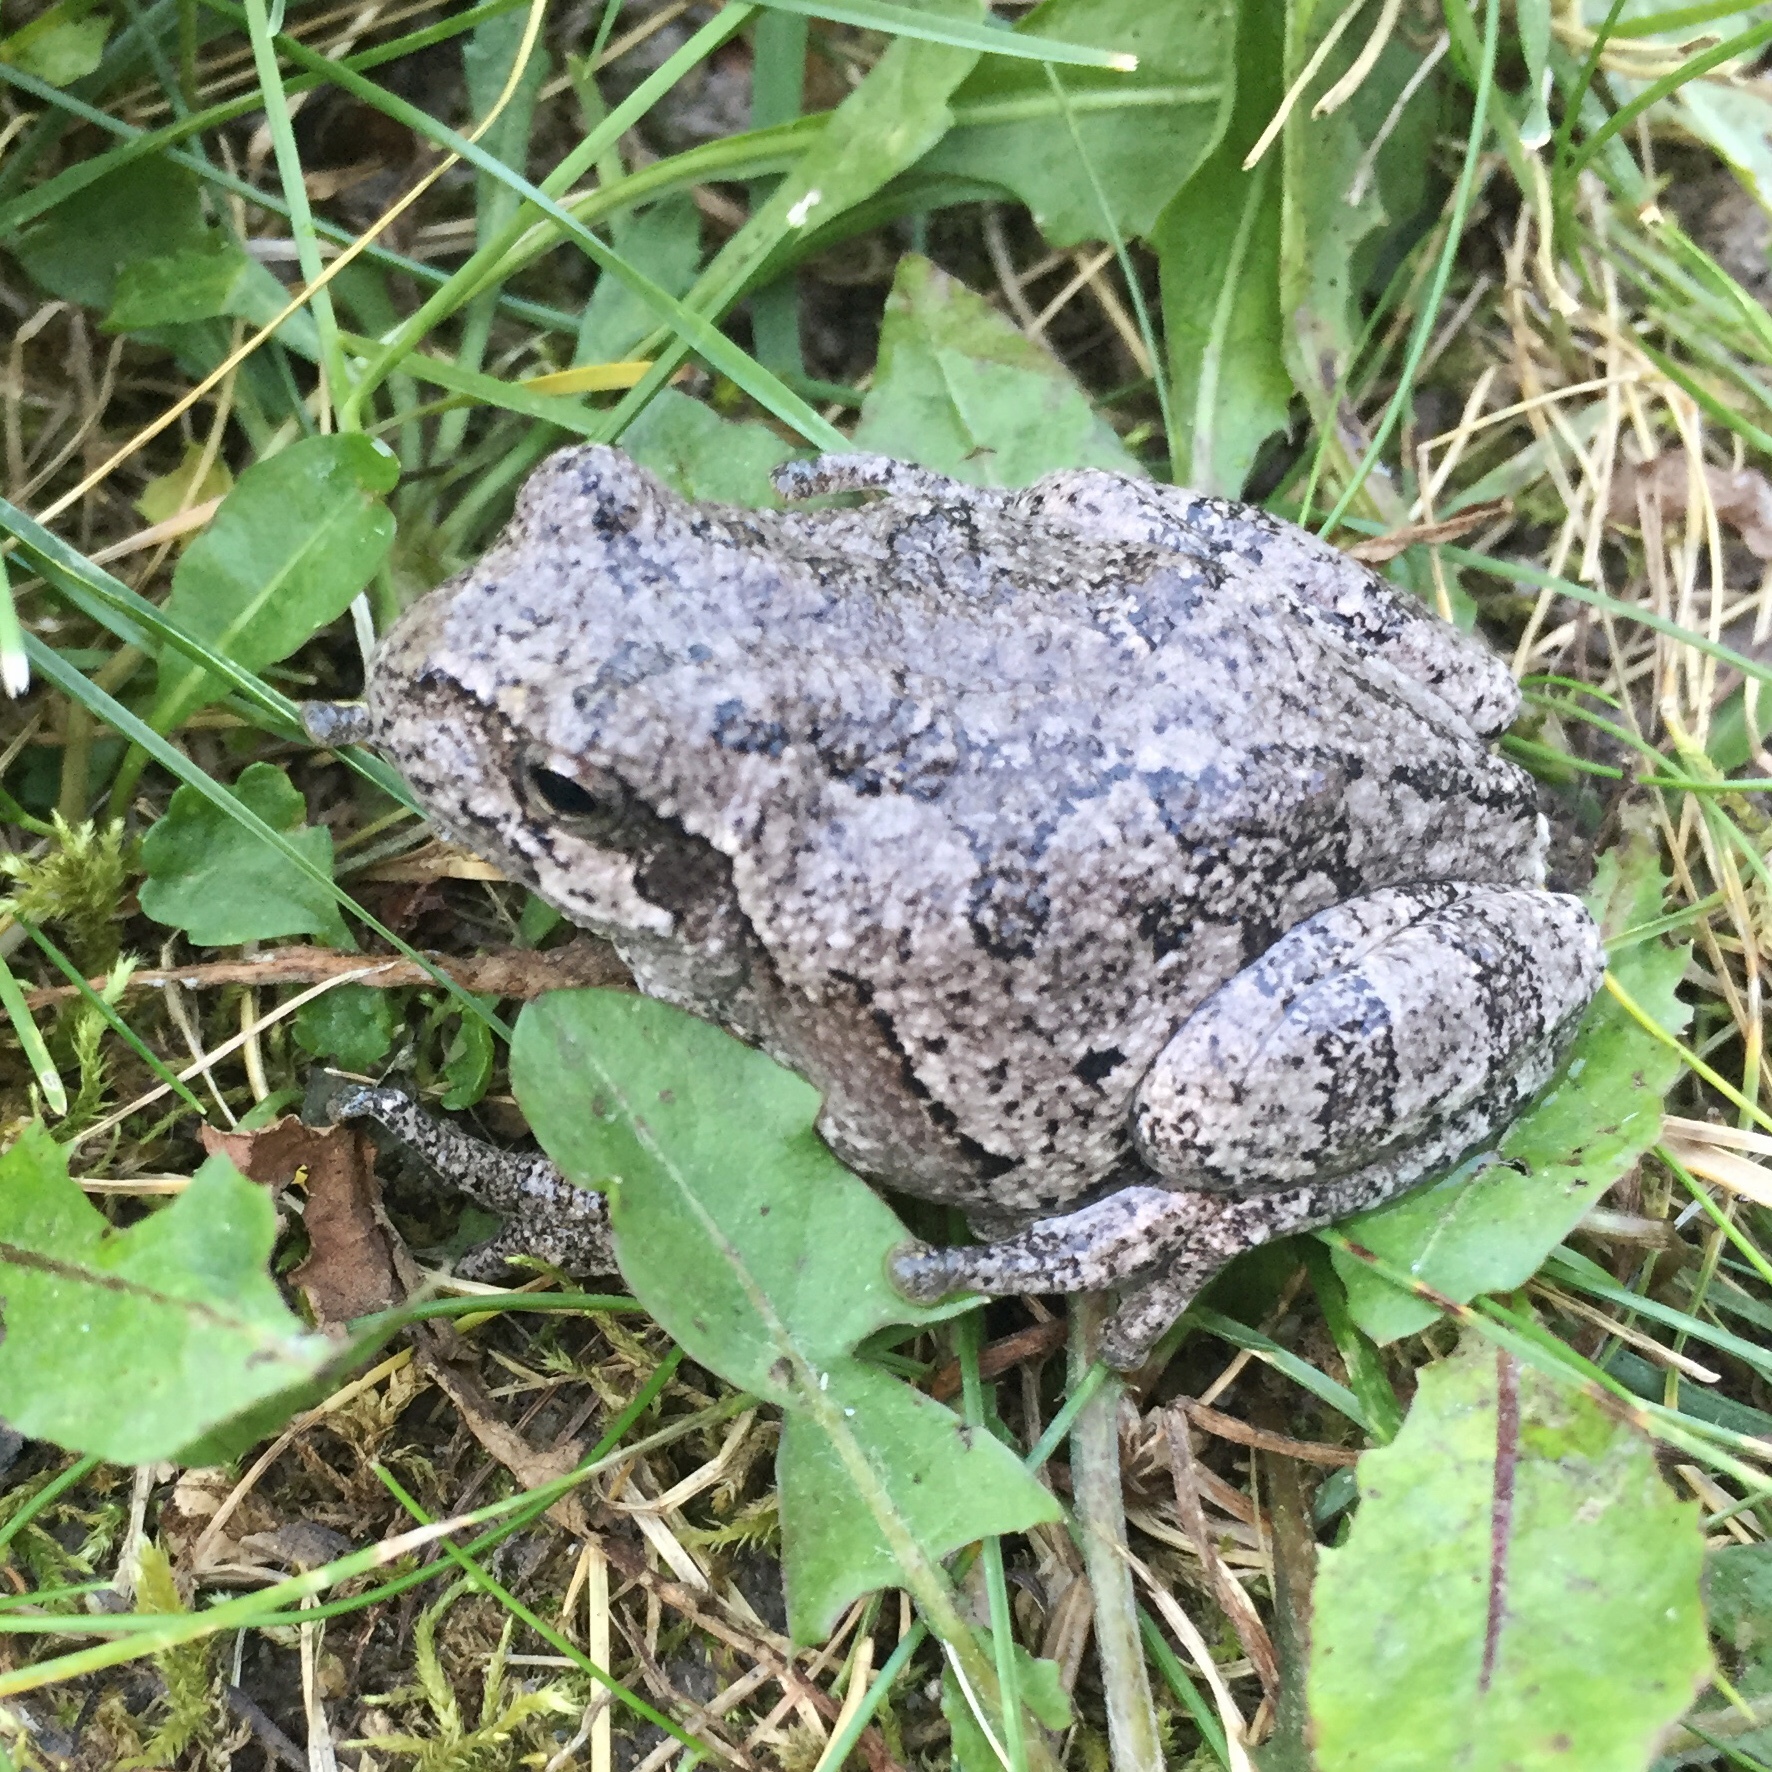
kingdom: Animalia
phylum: Chordata
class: Amphibia
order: Anura
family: Hylidae
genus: Hyla
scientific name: Hyla
